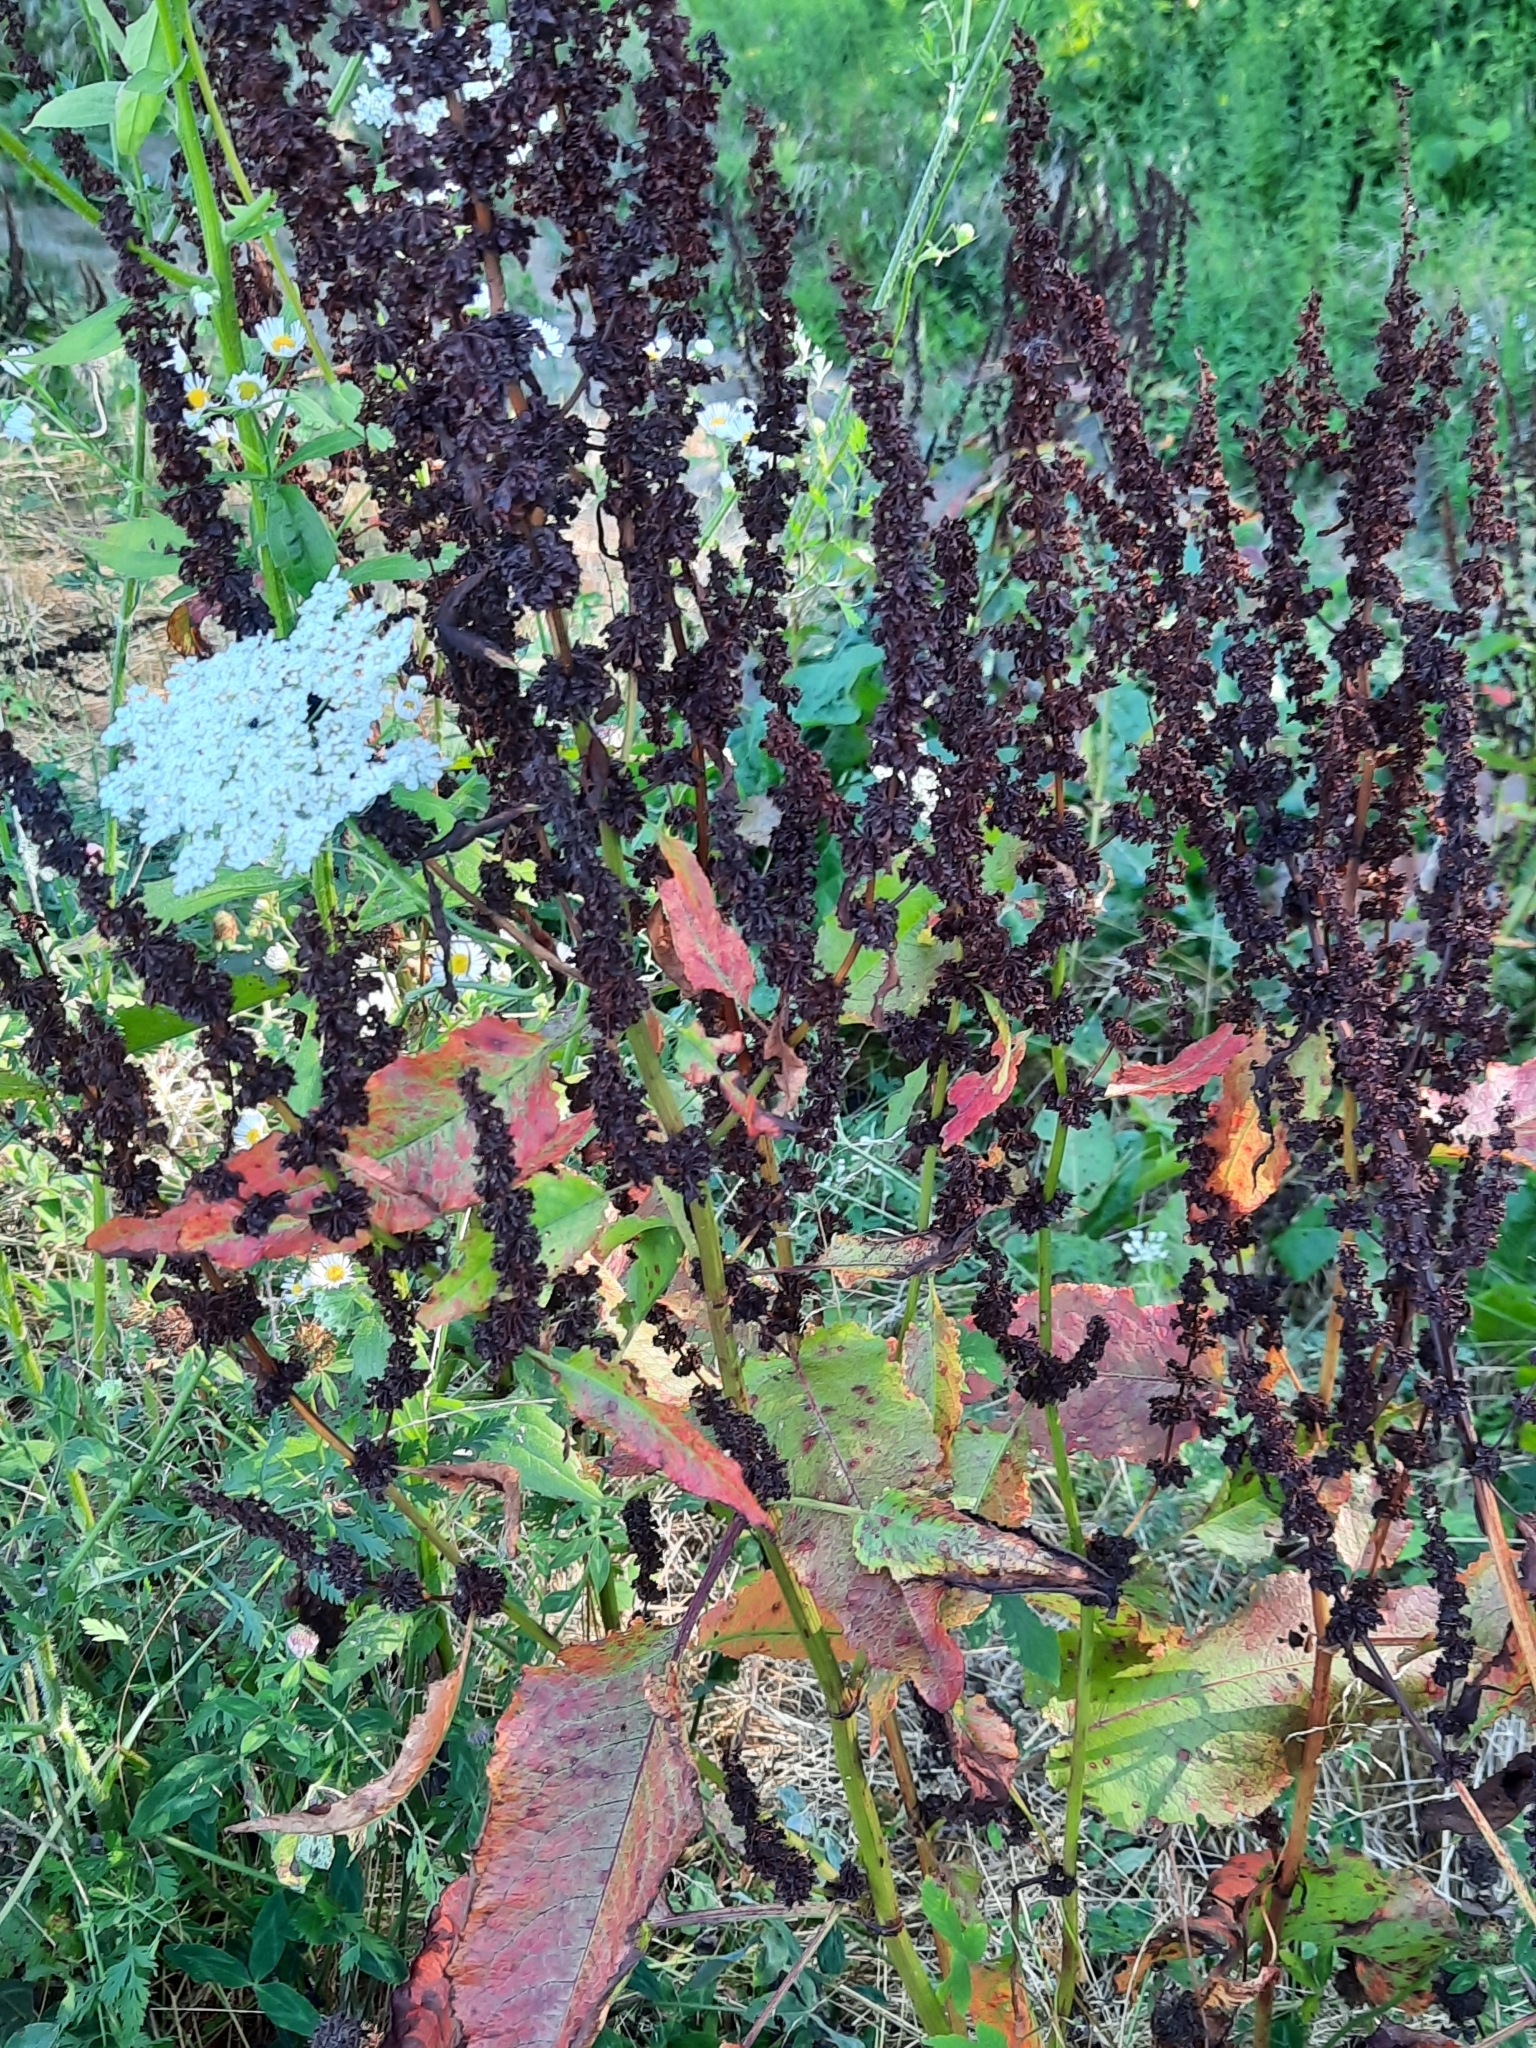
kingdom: Plantae
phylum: Tracheophyta
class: Magnoliopsida
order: Caryophyllales
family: Polygonaceae
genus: Rumex
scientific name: Rumex obtusifolius
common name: Bitter dock
